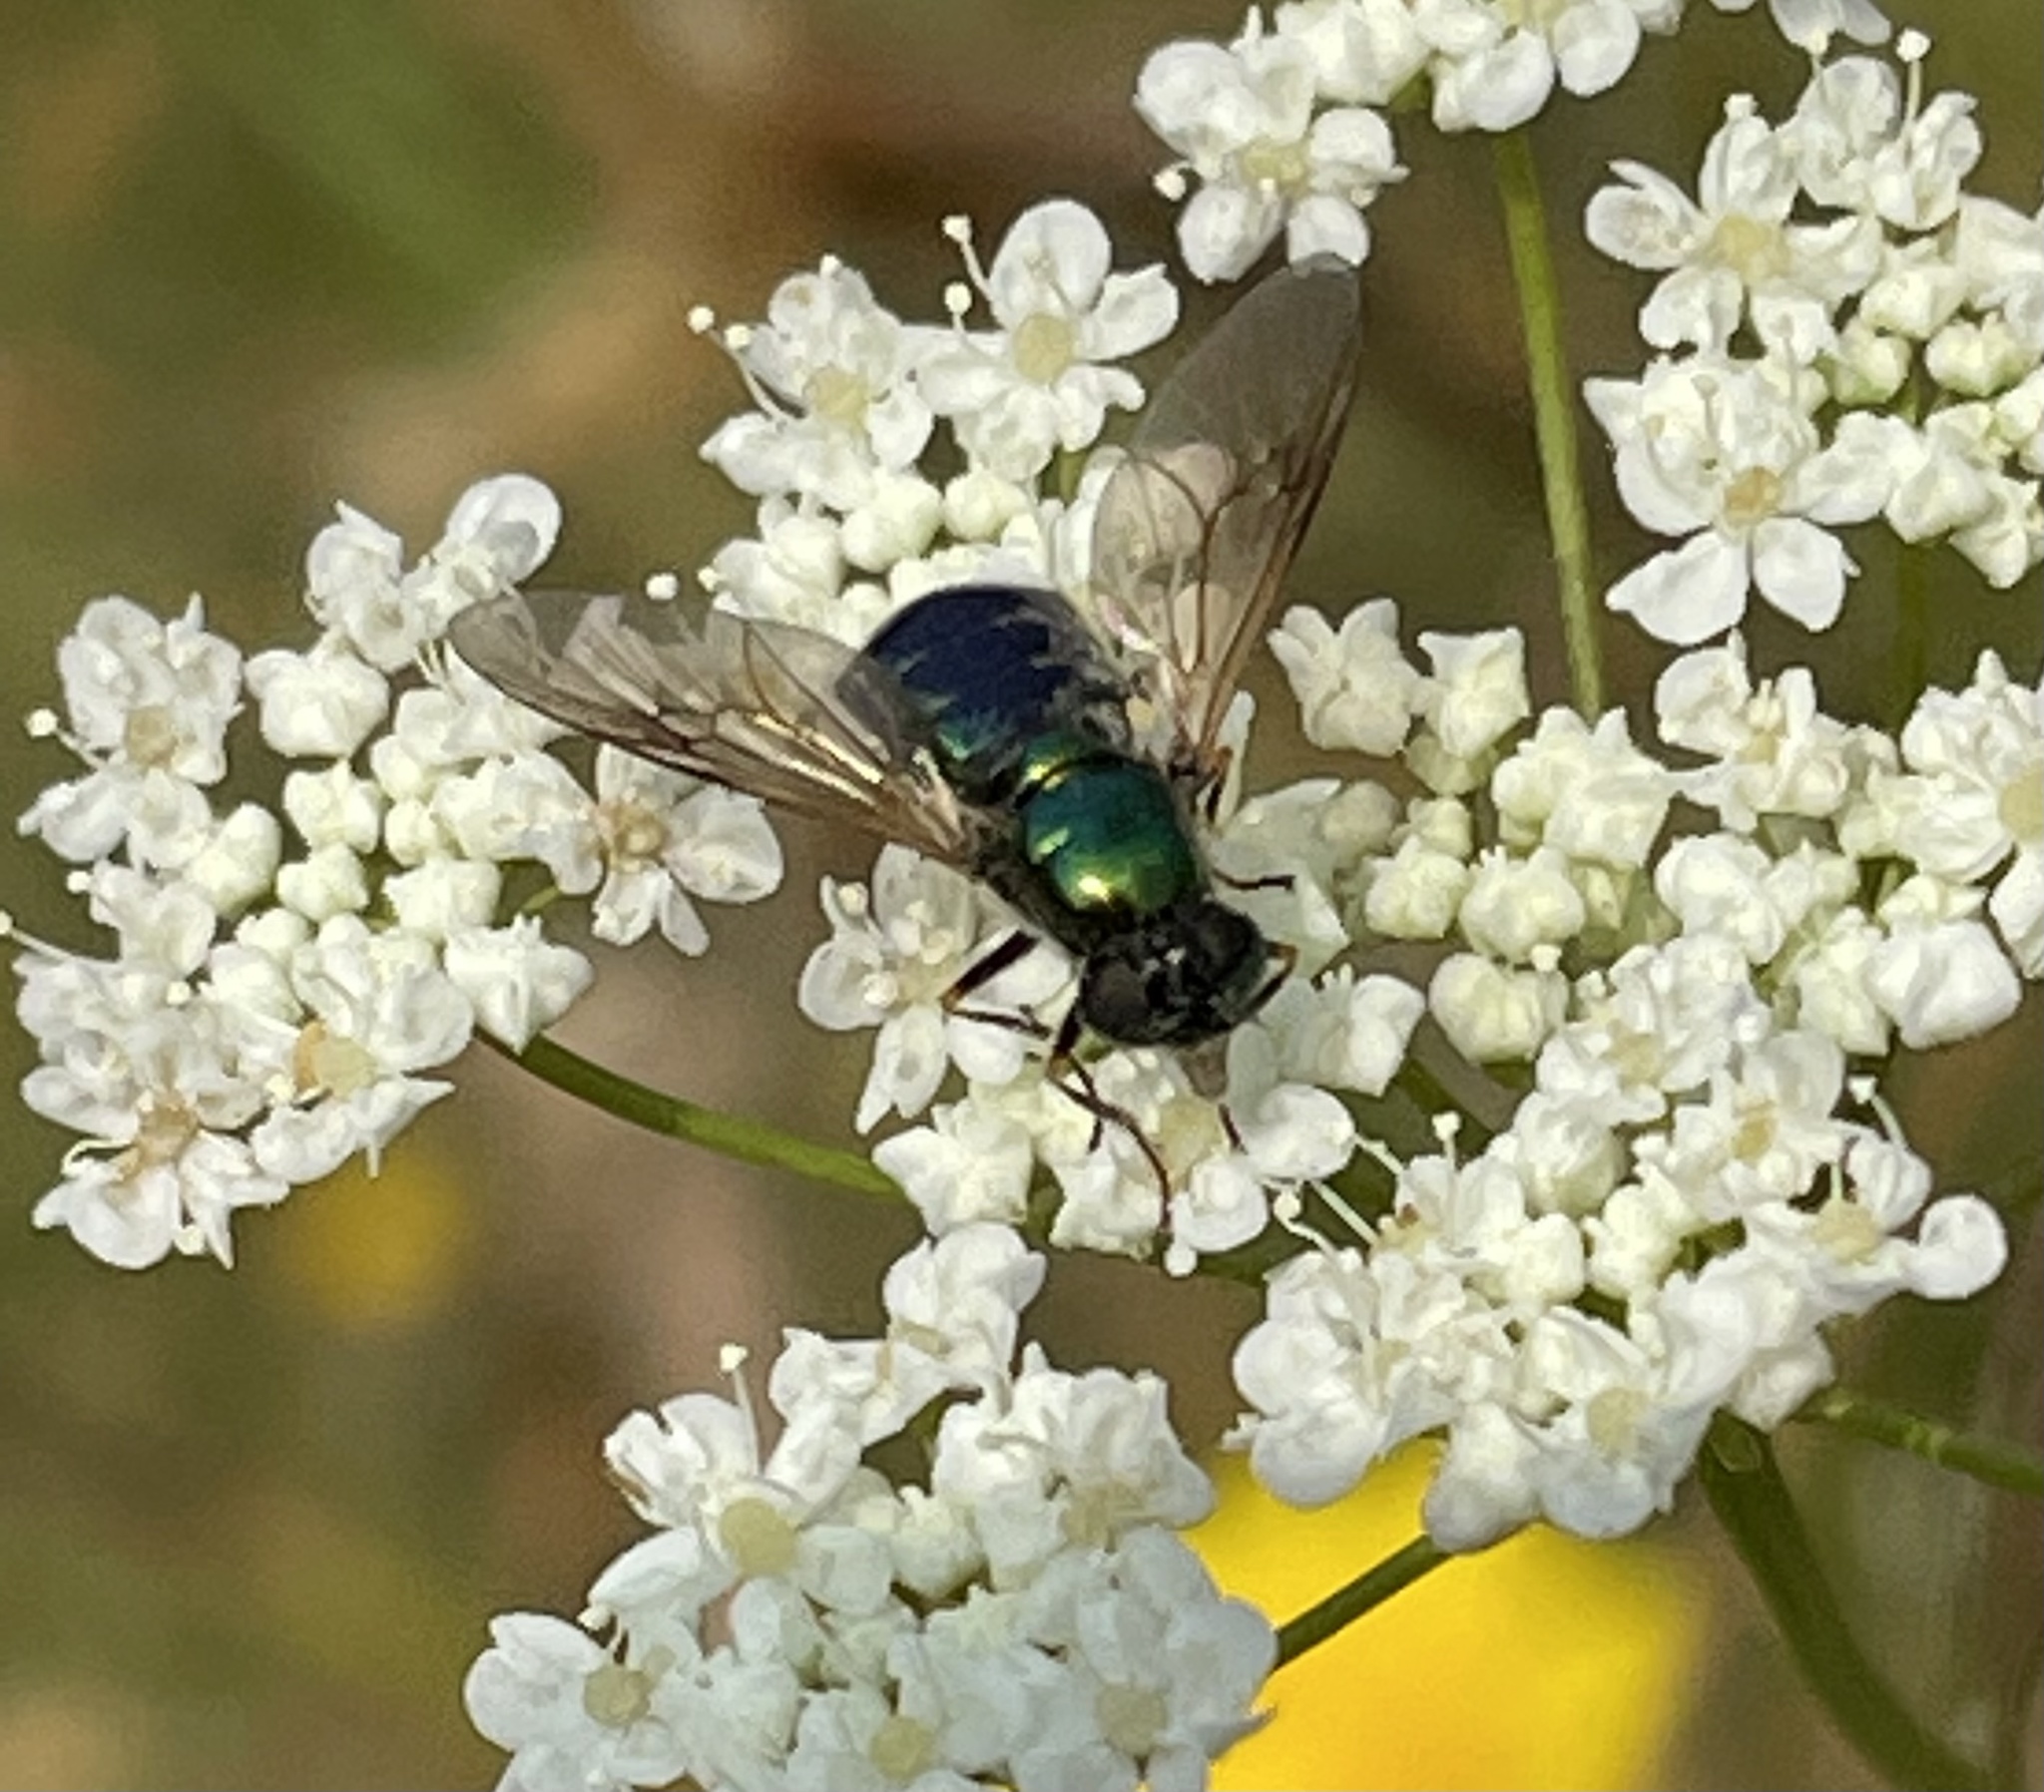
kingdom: Animalia
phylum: Arthropoda
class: Insecta
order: Diptera
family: Stratiomyidae
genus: Chloromyia
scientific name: Chloromyia formosa
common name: Soldier fly
